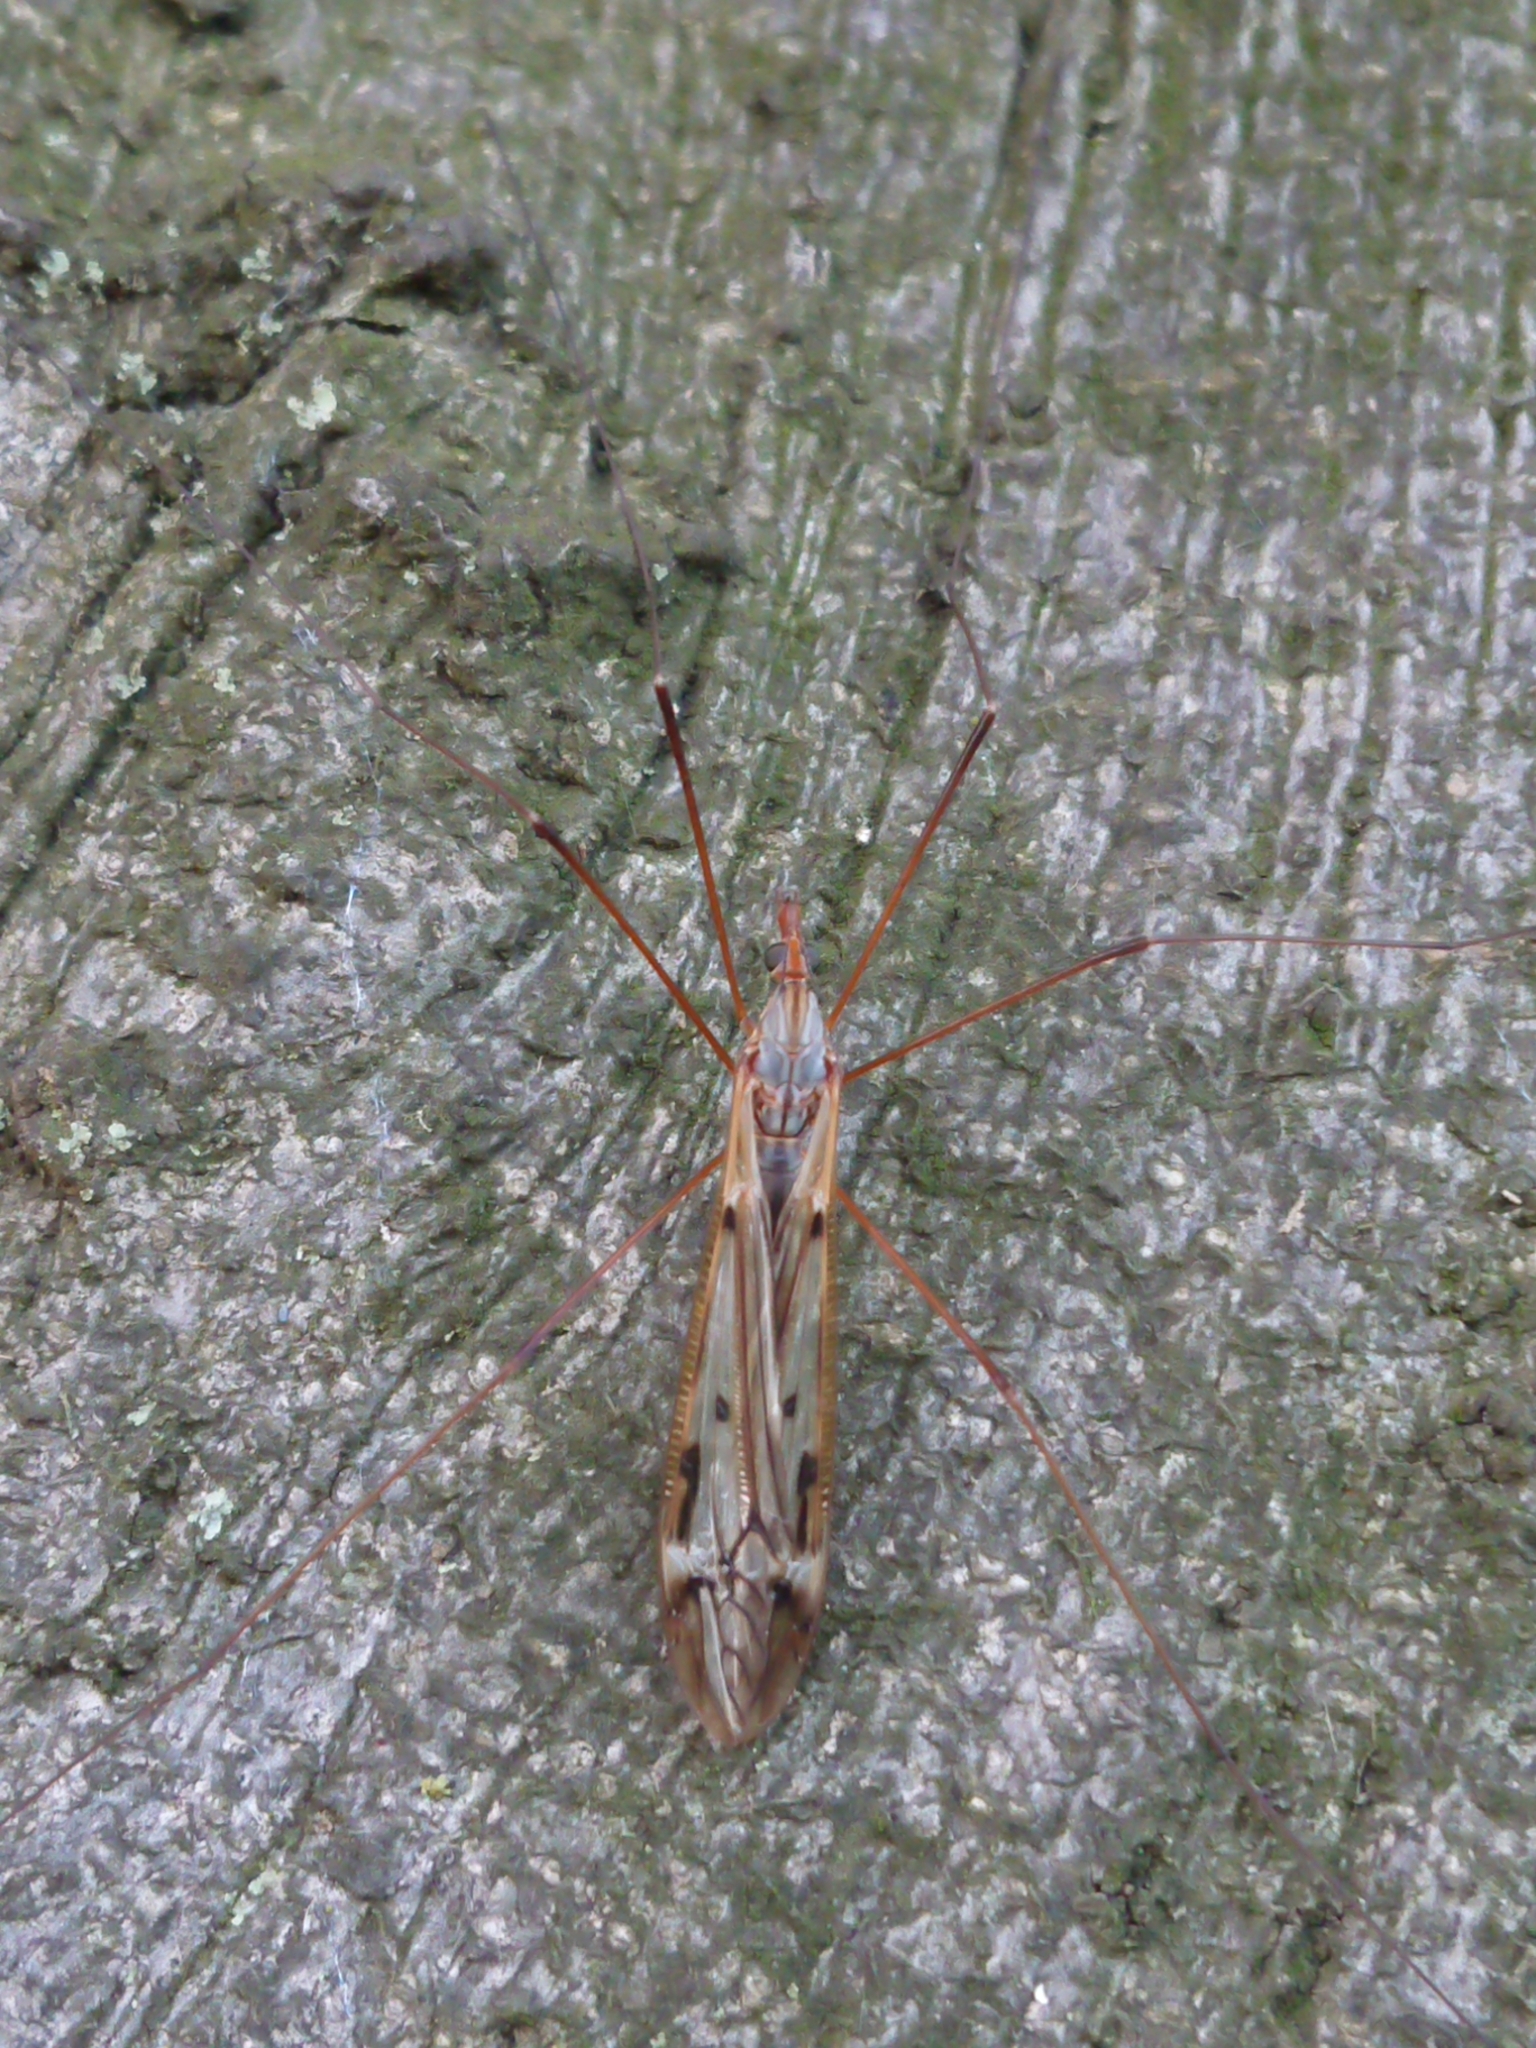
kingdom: Animalia
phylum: Arthropoda
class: Insecta
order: Diptera
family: Tipulidae
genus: Zelandotipula
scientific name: Zelandotipula novarae
